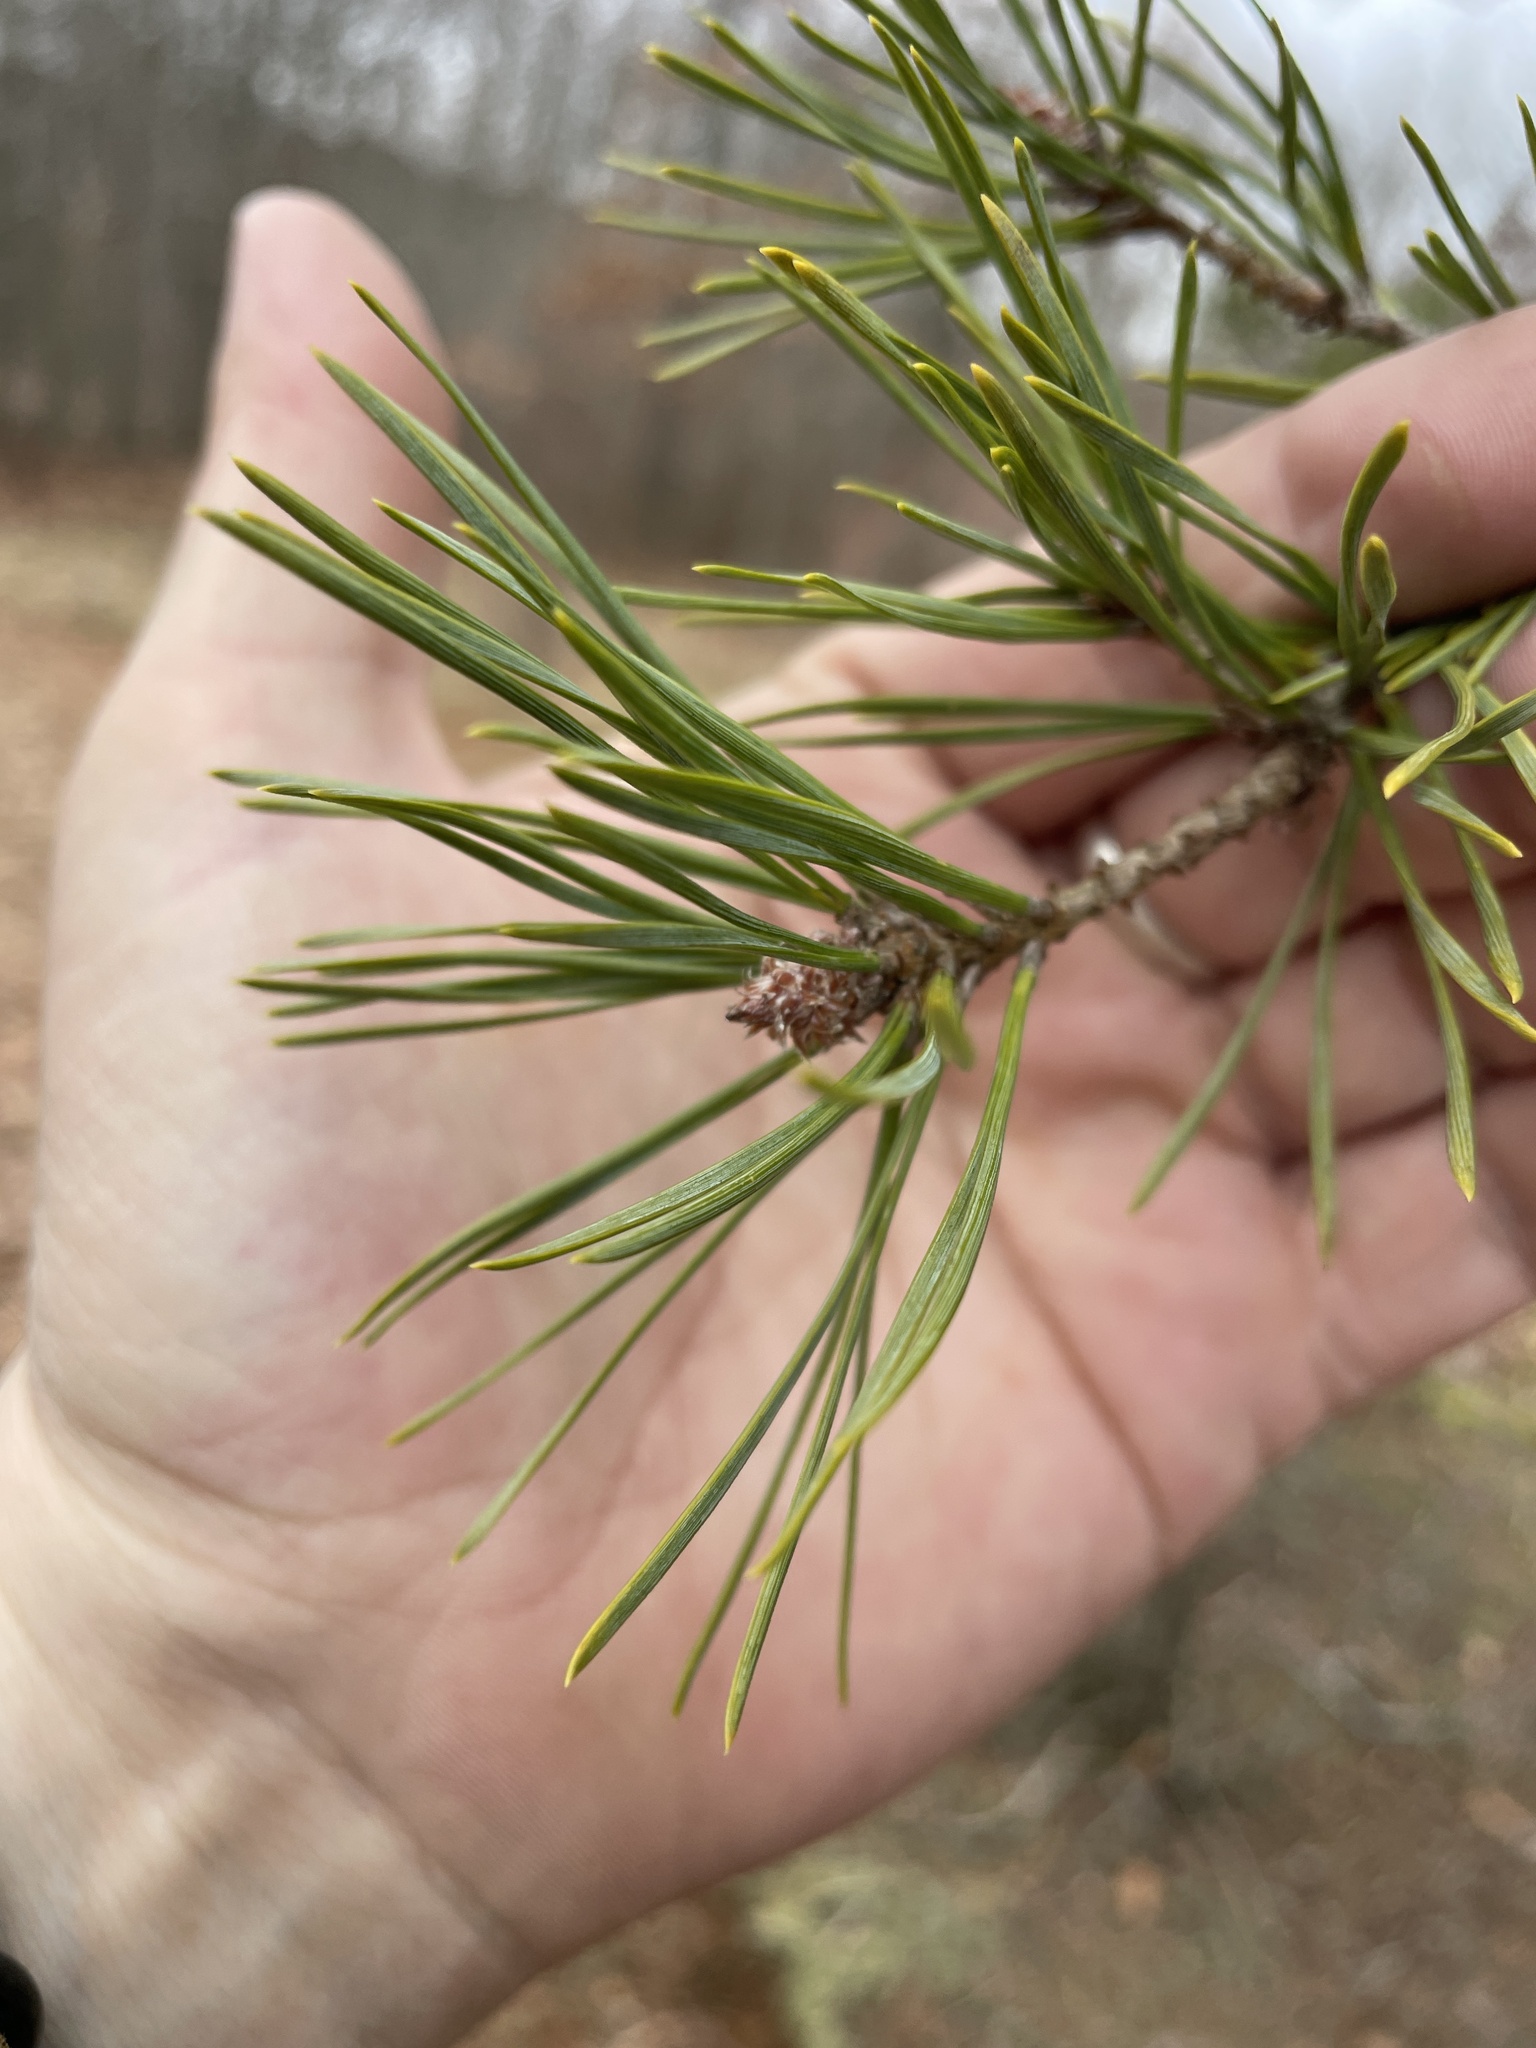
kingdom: Plantae
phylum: Tracheophyta
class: Pinopsida
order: Pinales
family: Pinaceae
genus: Pinus
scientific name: Pinus virginiana
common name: Scrub pine
